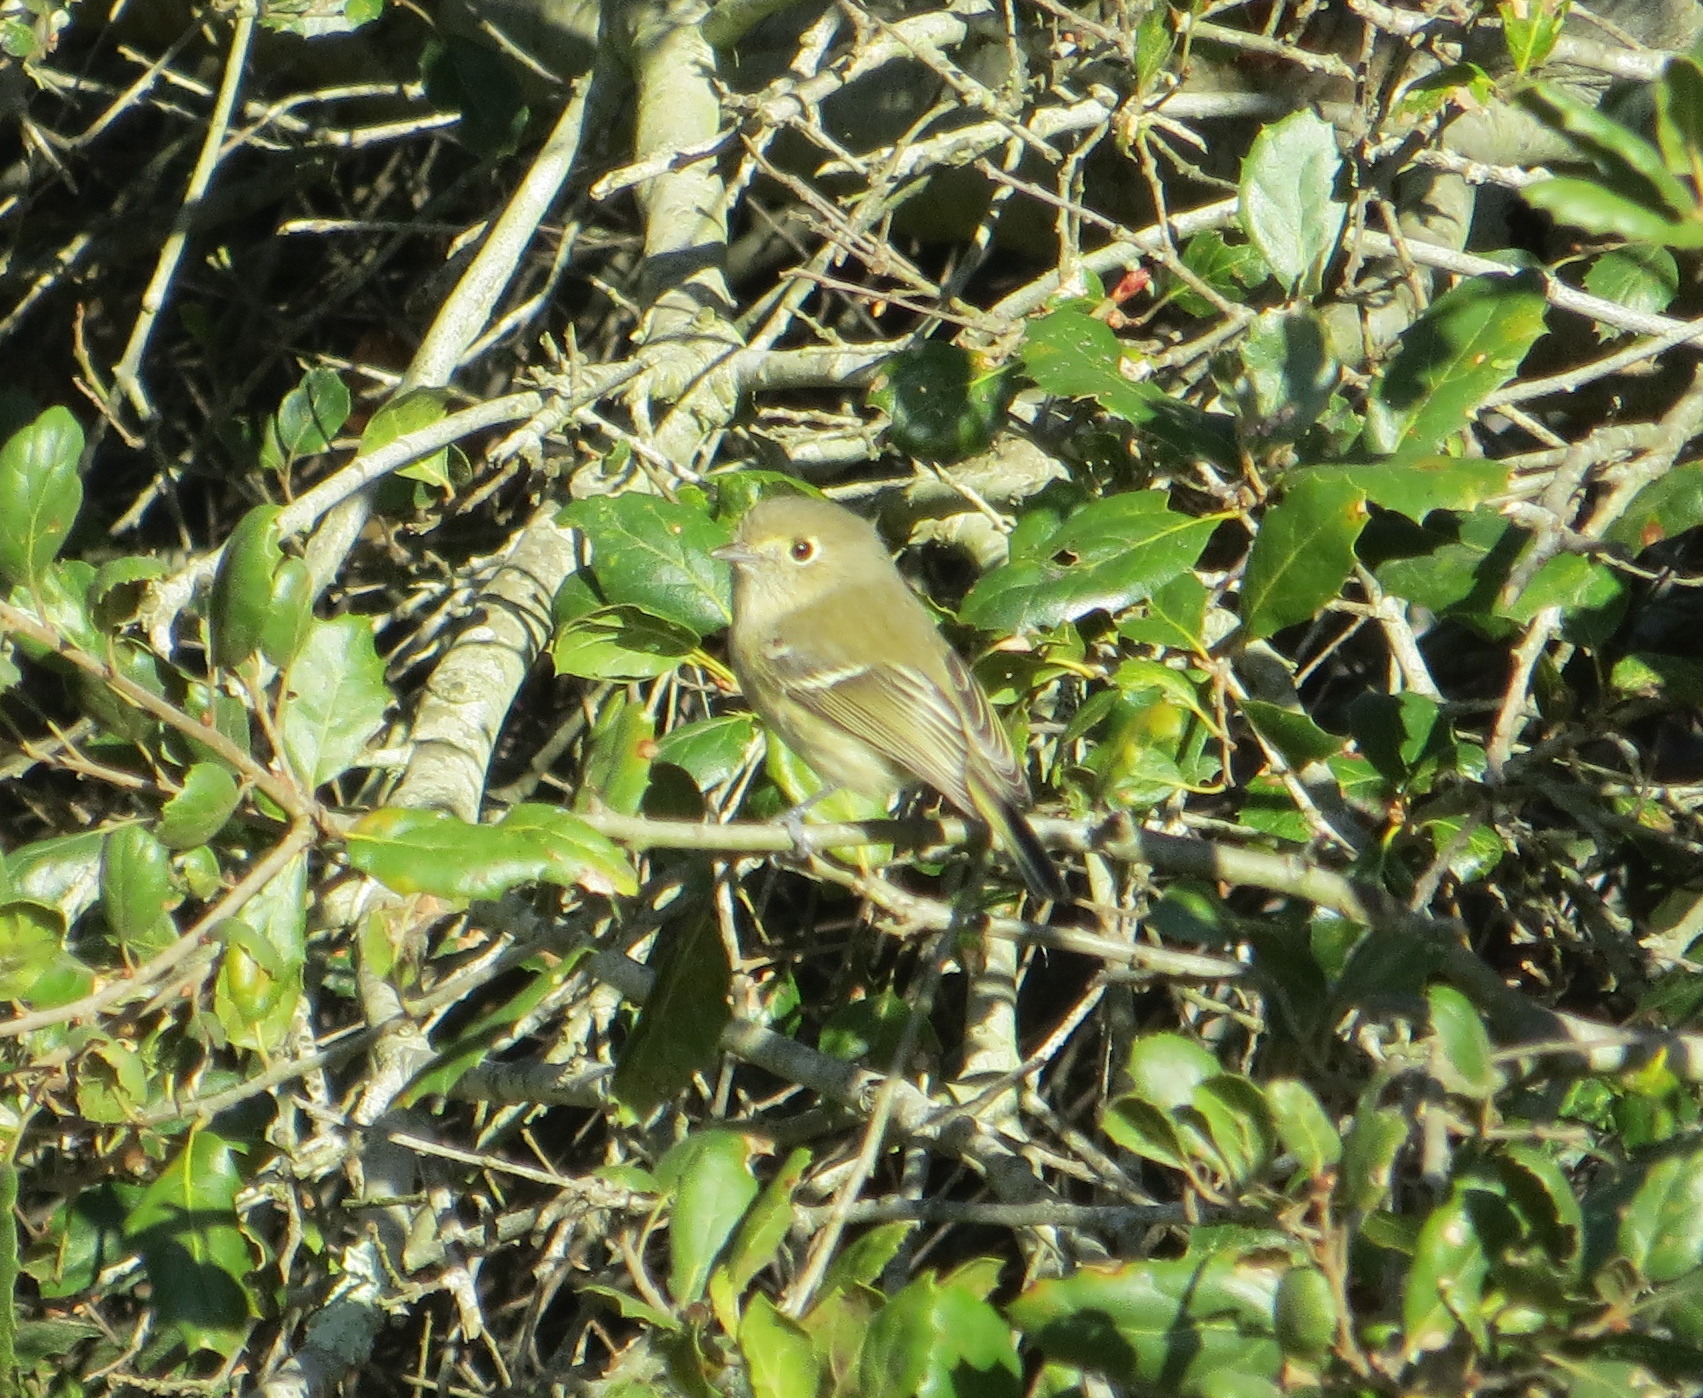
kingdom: Animalia
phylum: Chordata
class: Aves
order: Passeriformes
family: Vireonidae
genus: Vireo
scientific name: Vireo huttoni
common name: Hutton's vireo
